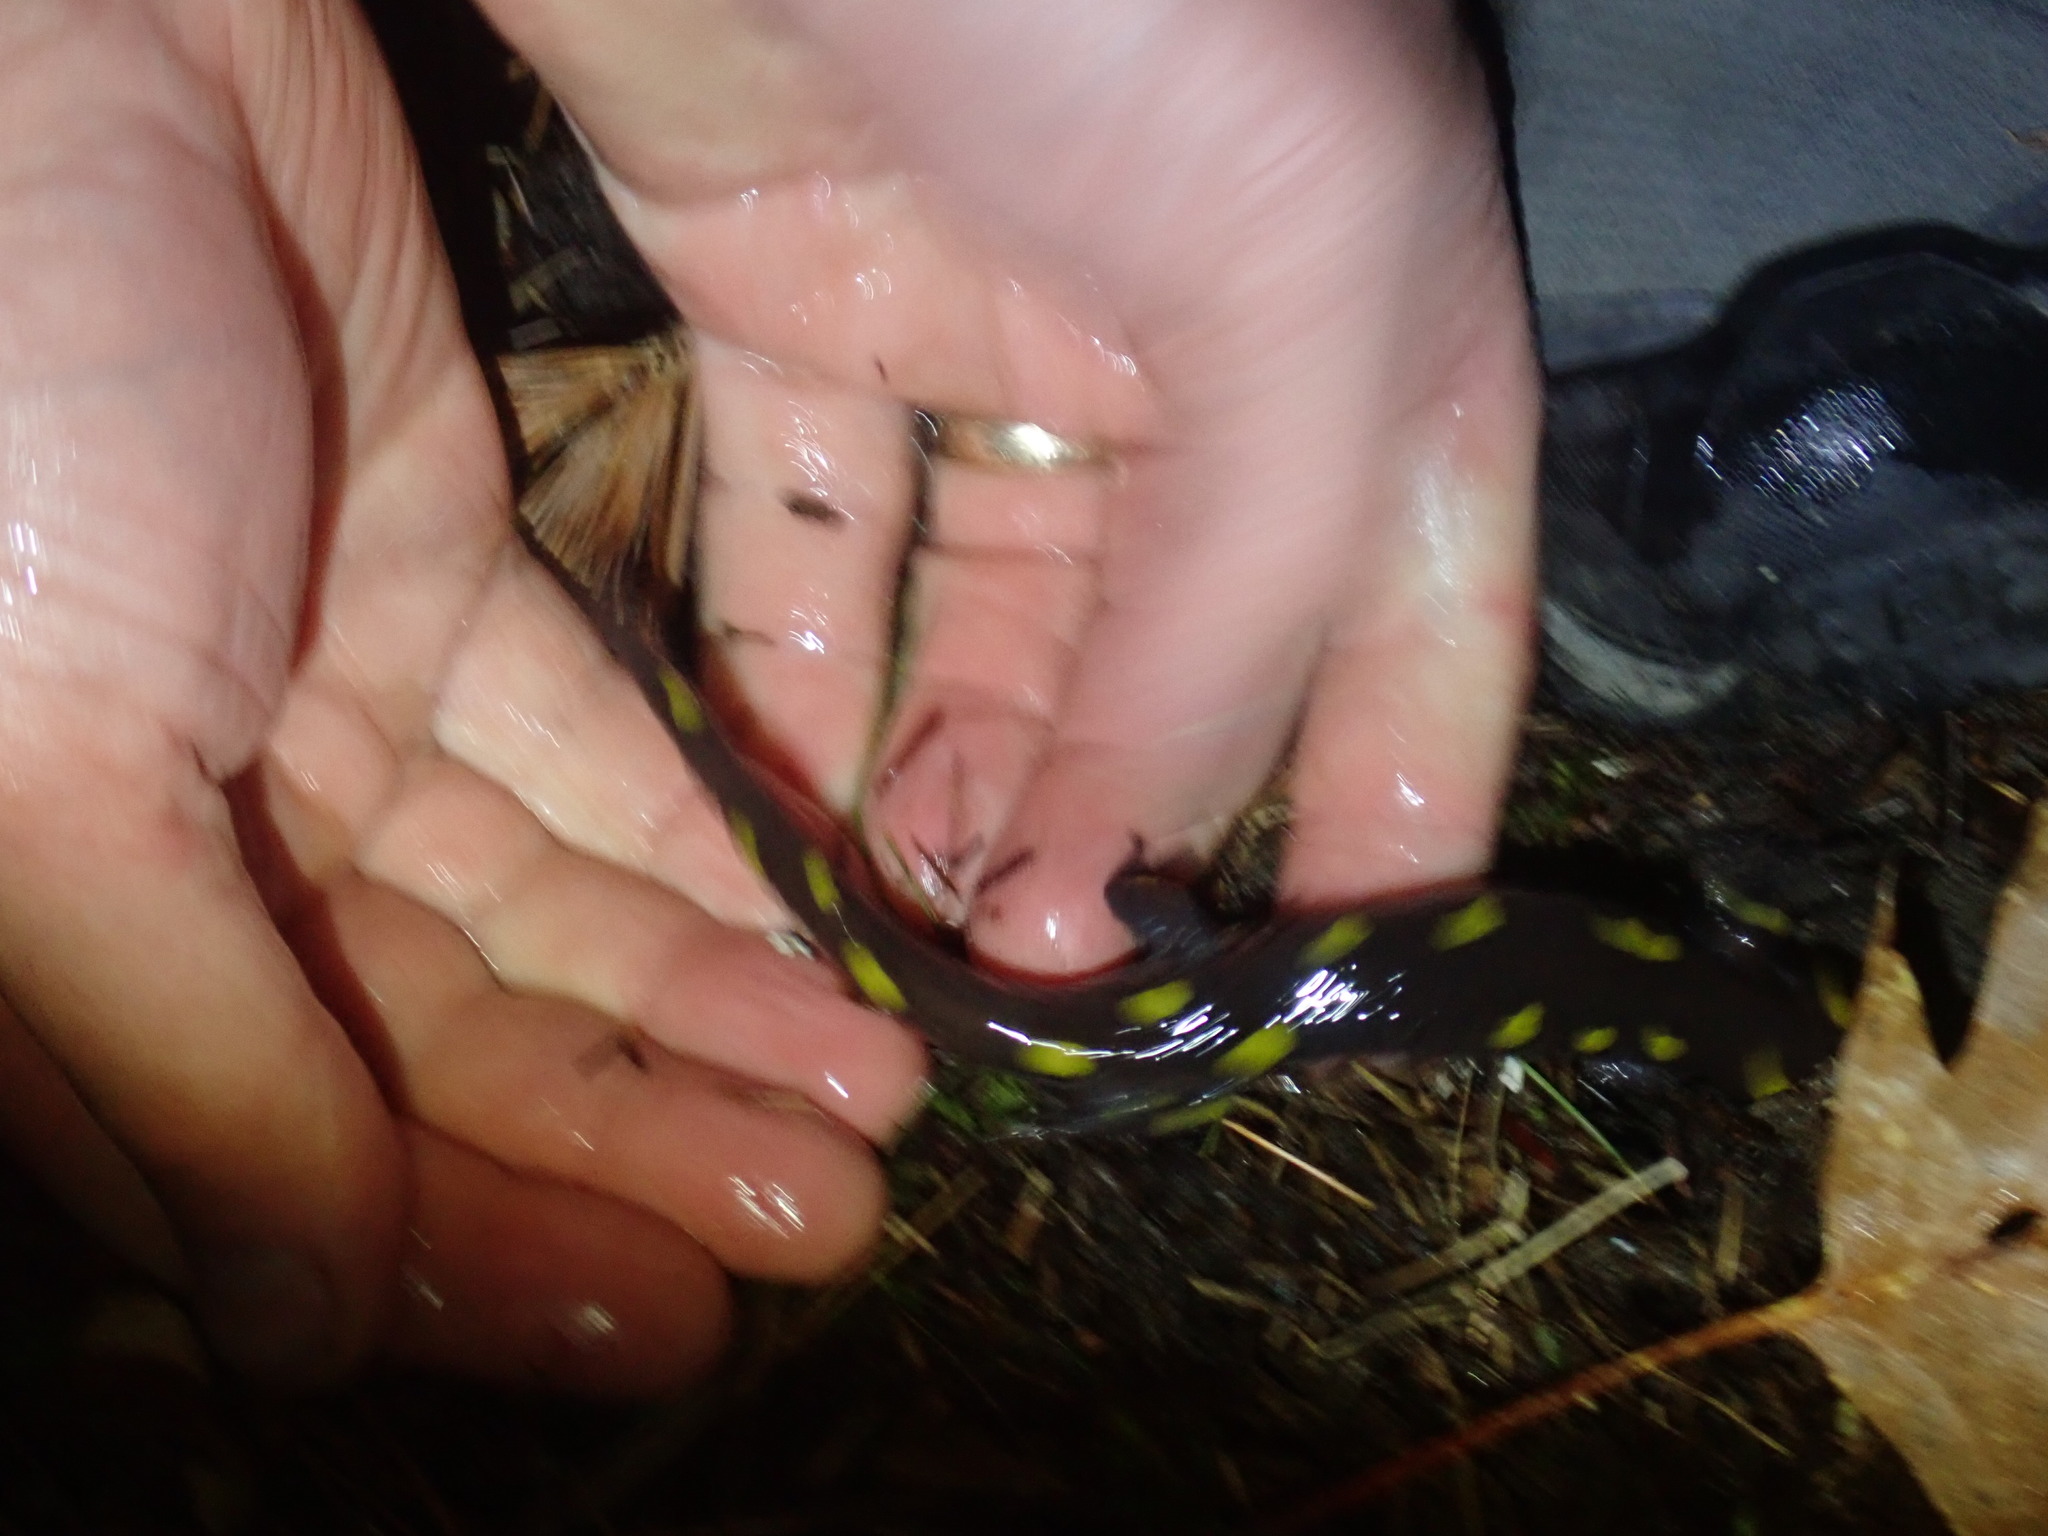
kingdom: Animalia
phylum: Chordata
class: Amphibia
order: Caudata
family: Ambystomatidae
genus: Ambystoma
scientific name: Ambystoma maculatum
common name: Spotted salamander
